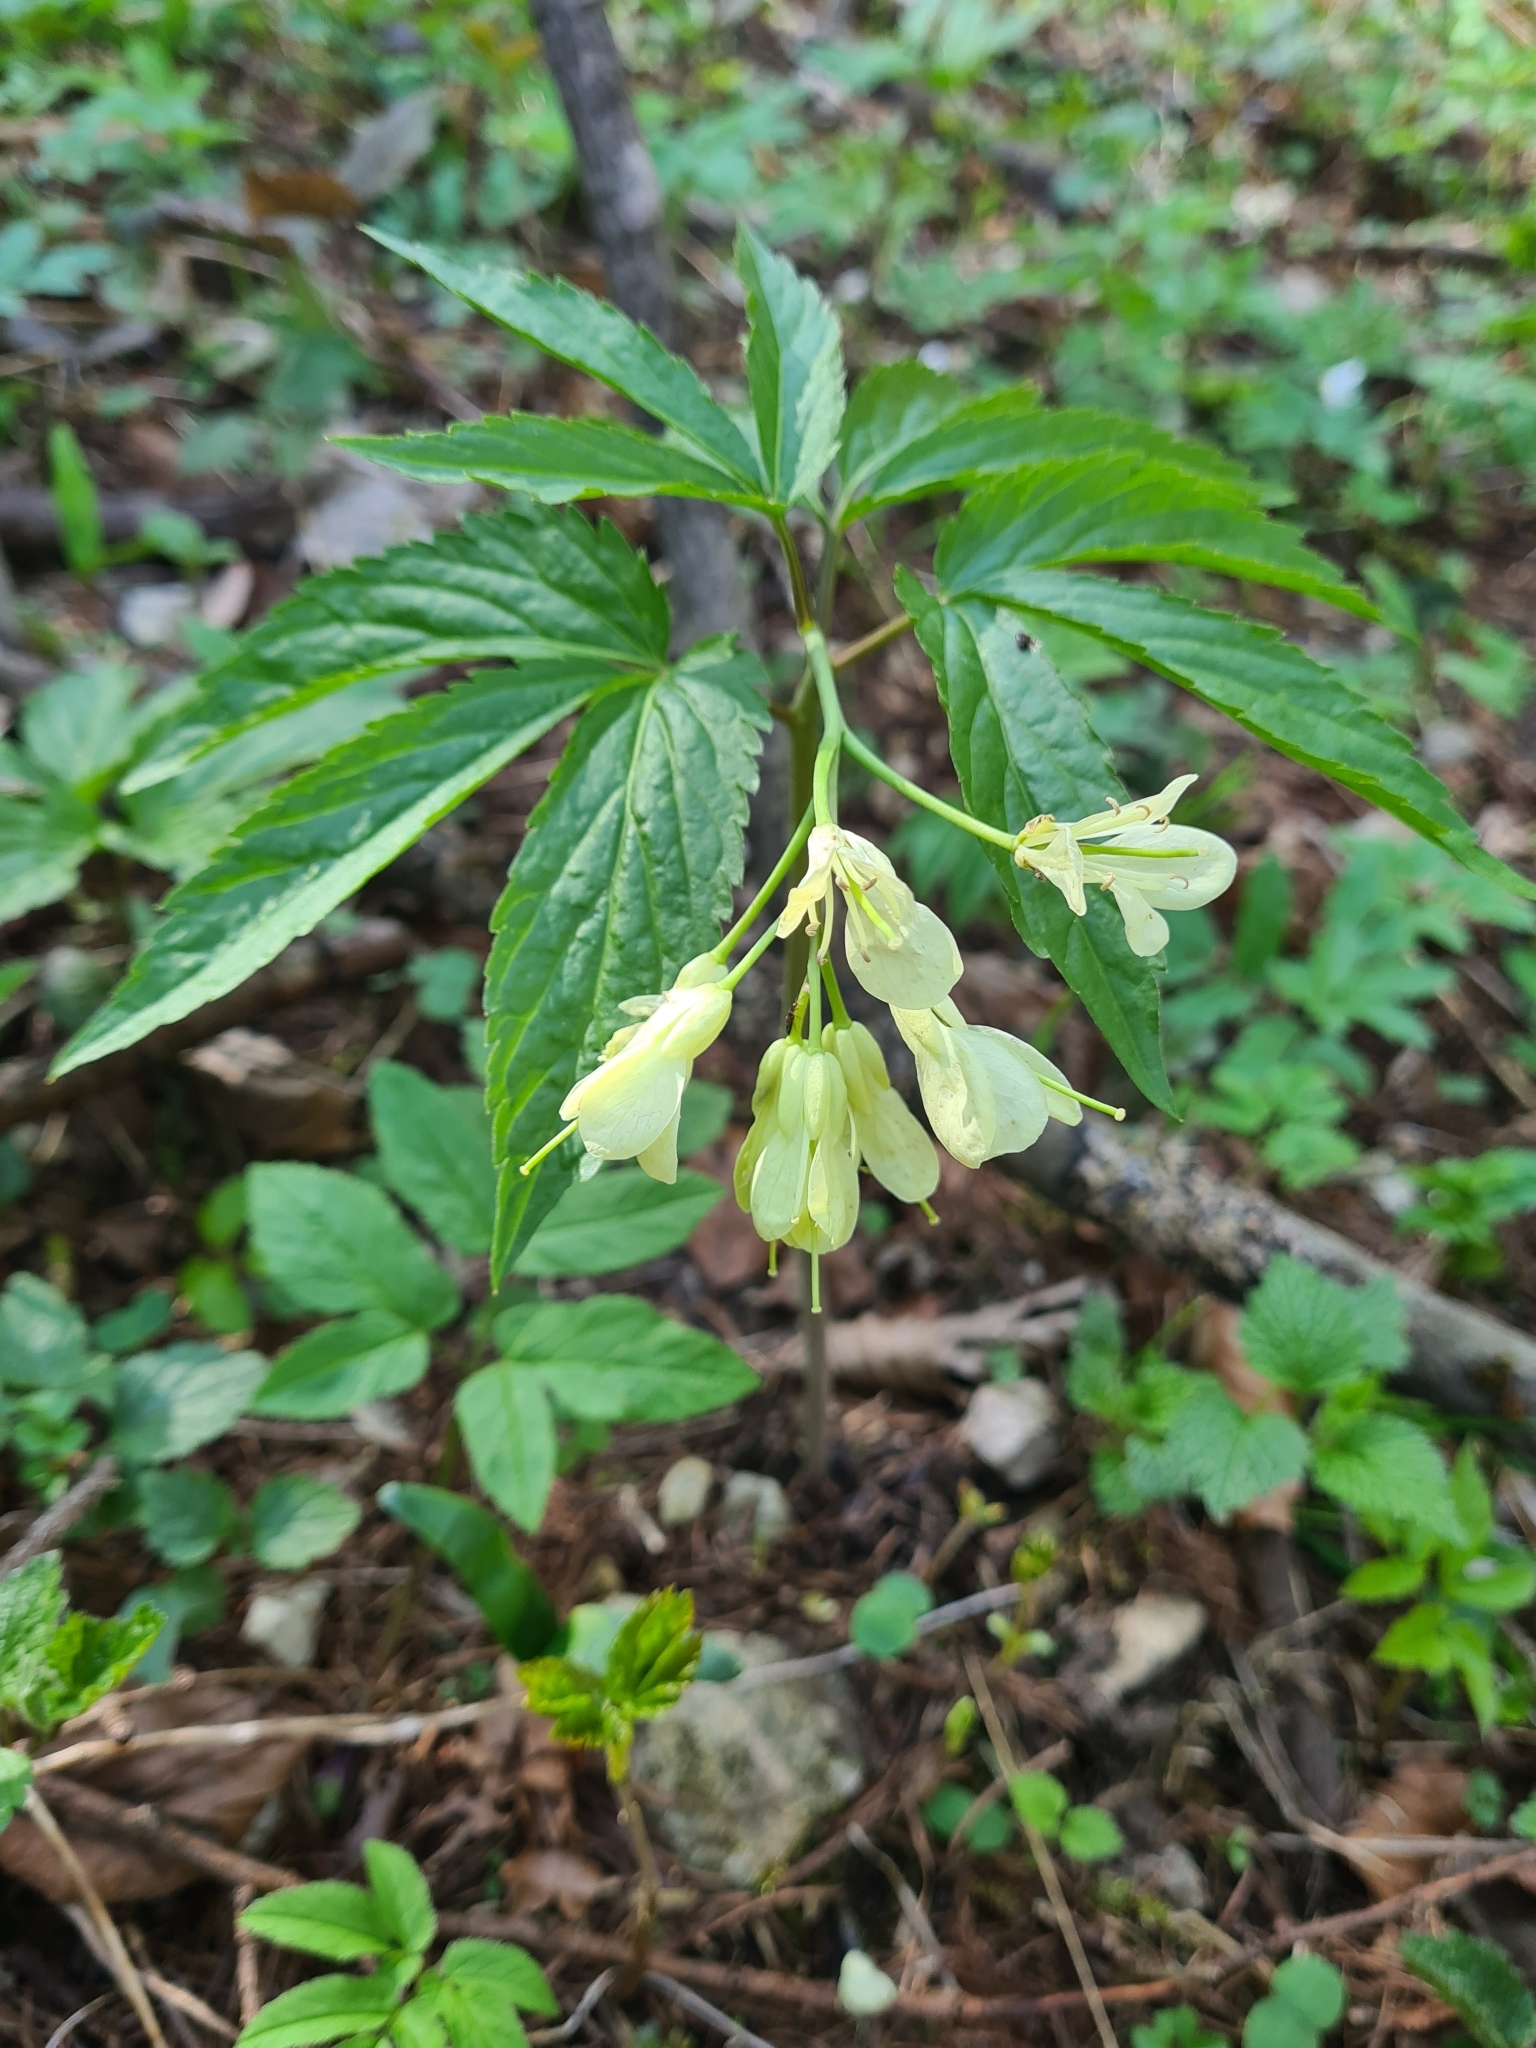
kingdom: Plantae
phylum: Tracheophyta
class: Magnoliopsida
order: Brassicales
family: Brassicaceae
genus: Cardamine
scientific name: Cardamine enneaphyllos
